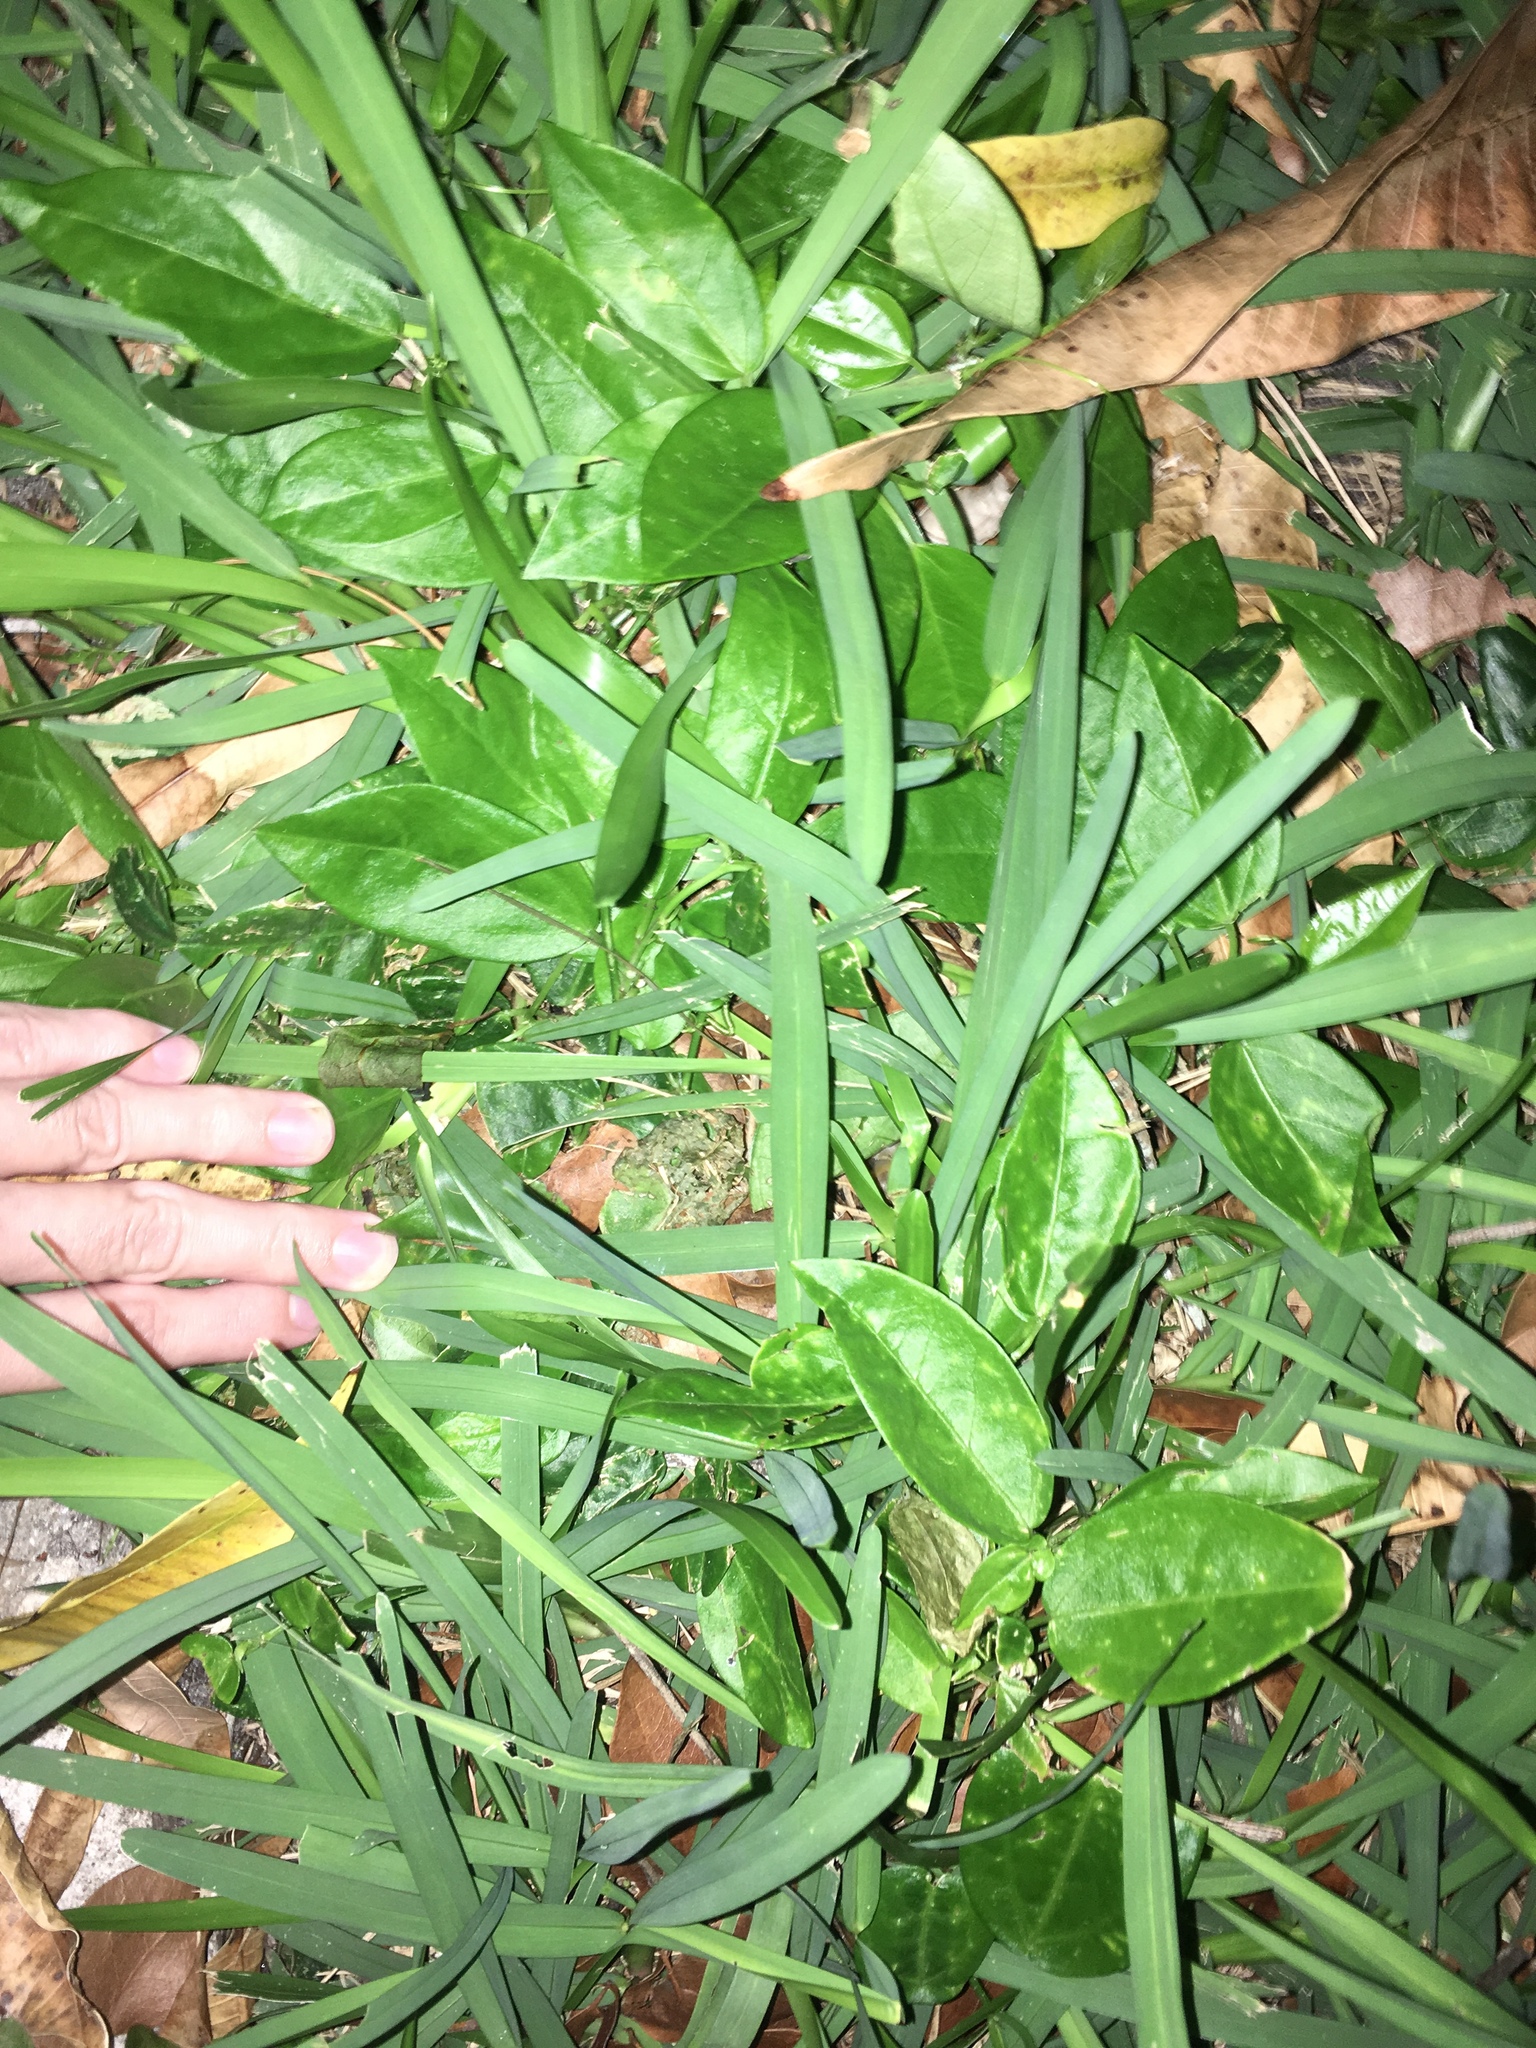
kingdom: Plantae
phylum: Tracheophyta
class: Magnoliopsida
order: Malpighiales
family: Passifloraceae
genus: Passiflora
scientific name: Passiflora pallida
